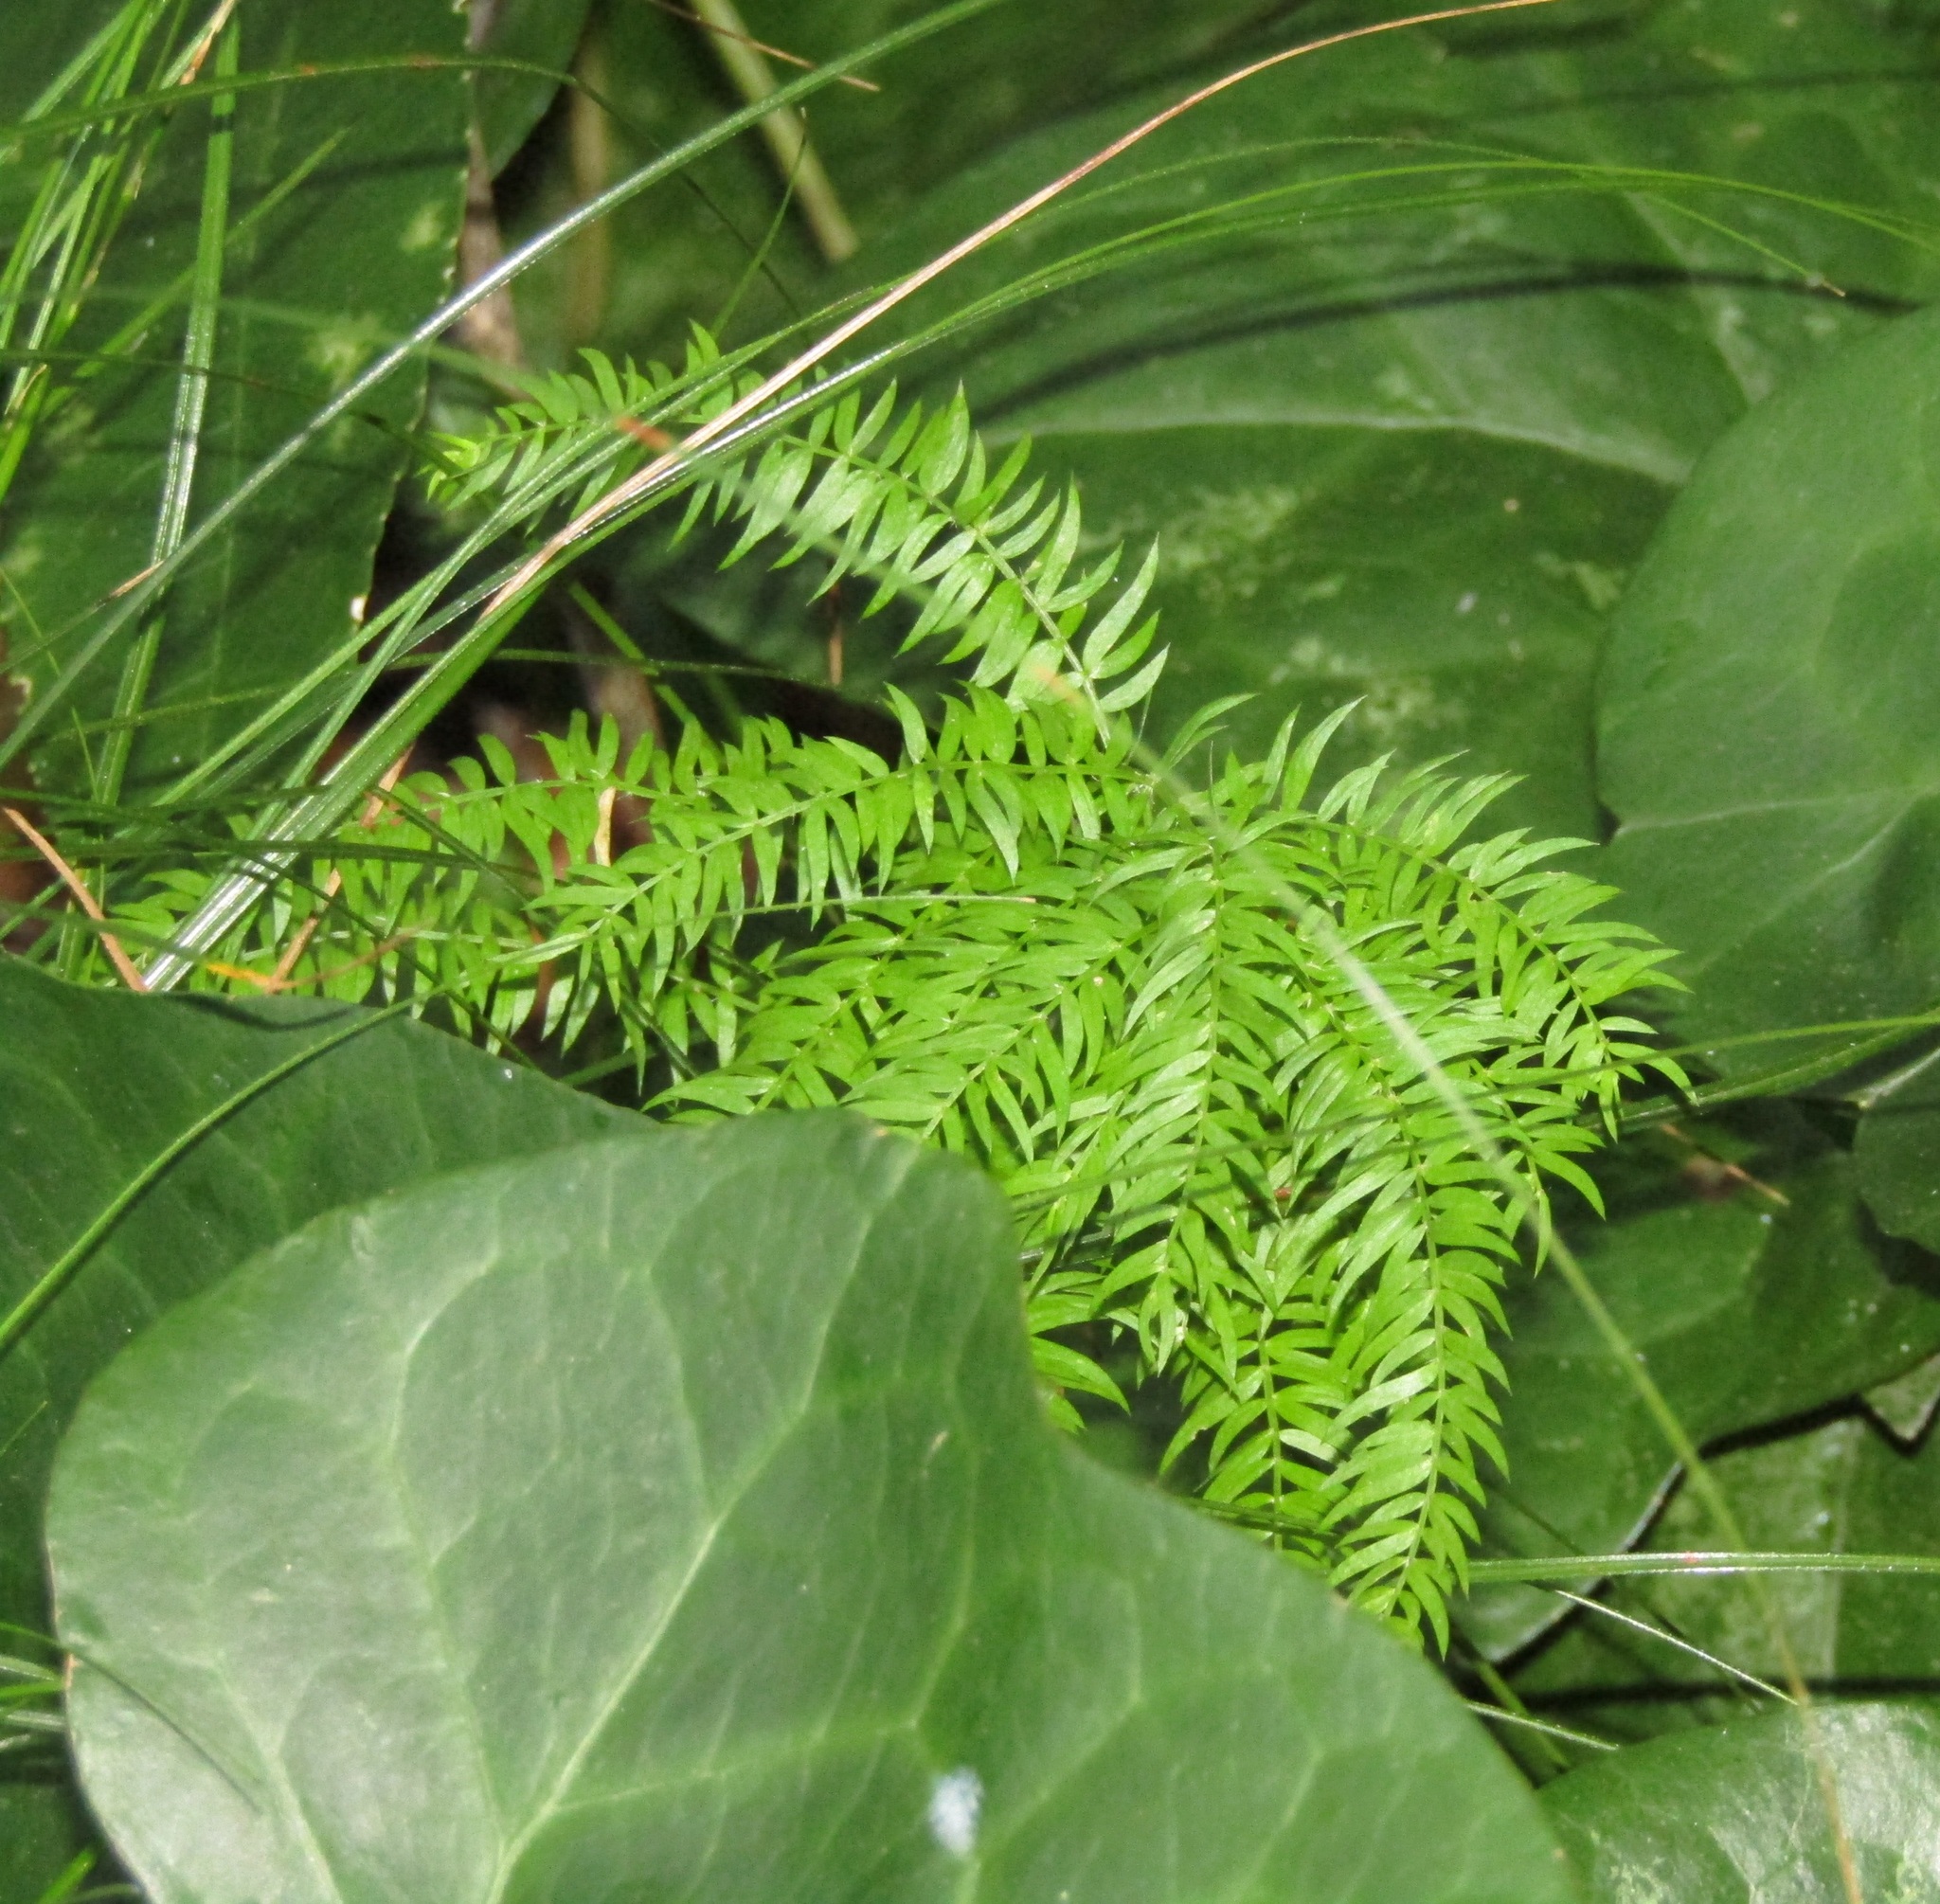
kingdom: Plantae
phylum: Tracheophyta
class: Liliopsida
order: Asparagales
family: Asparagaceae
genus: Asparagus
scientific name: Asparagus scandens
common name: Asparagus-fern
